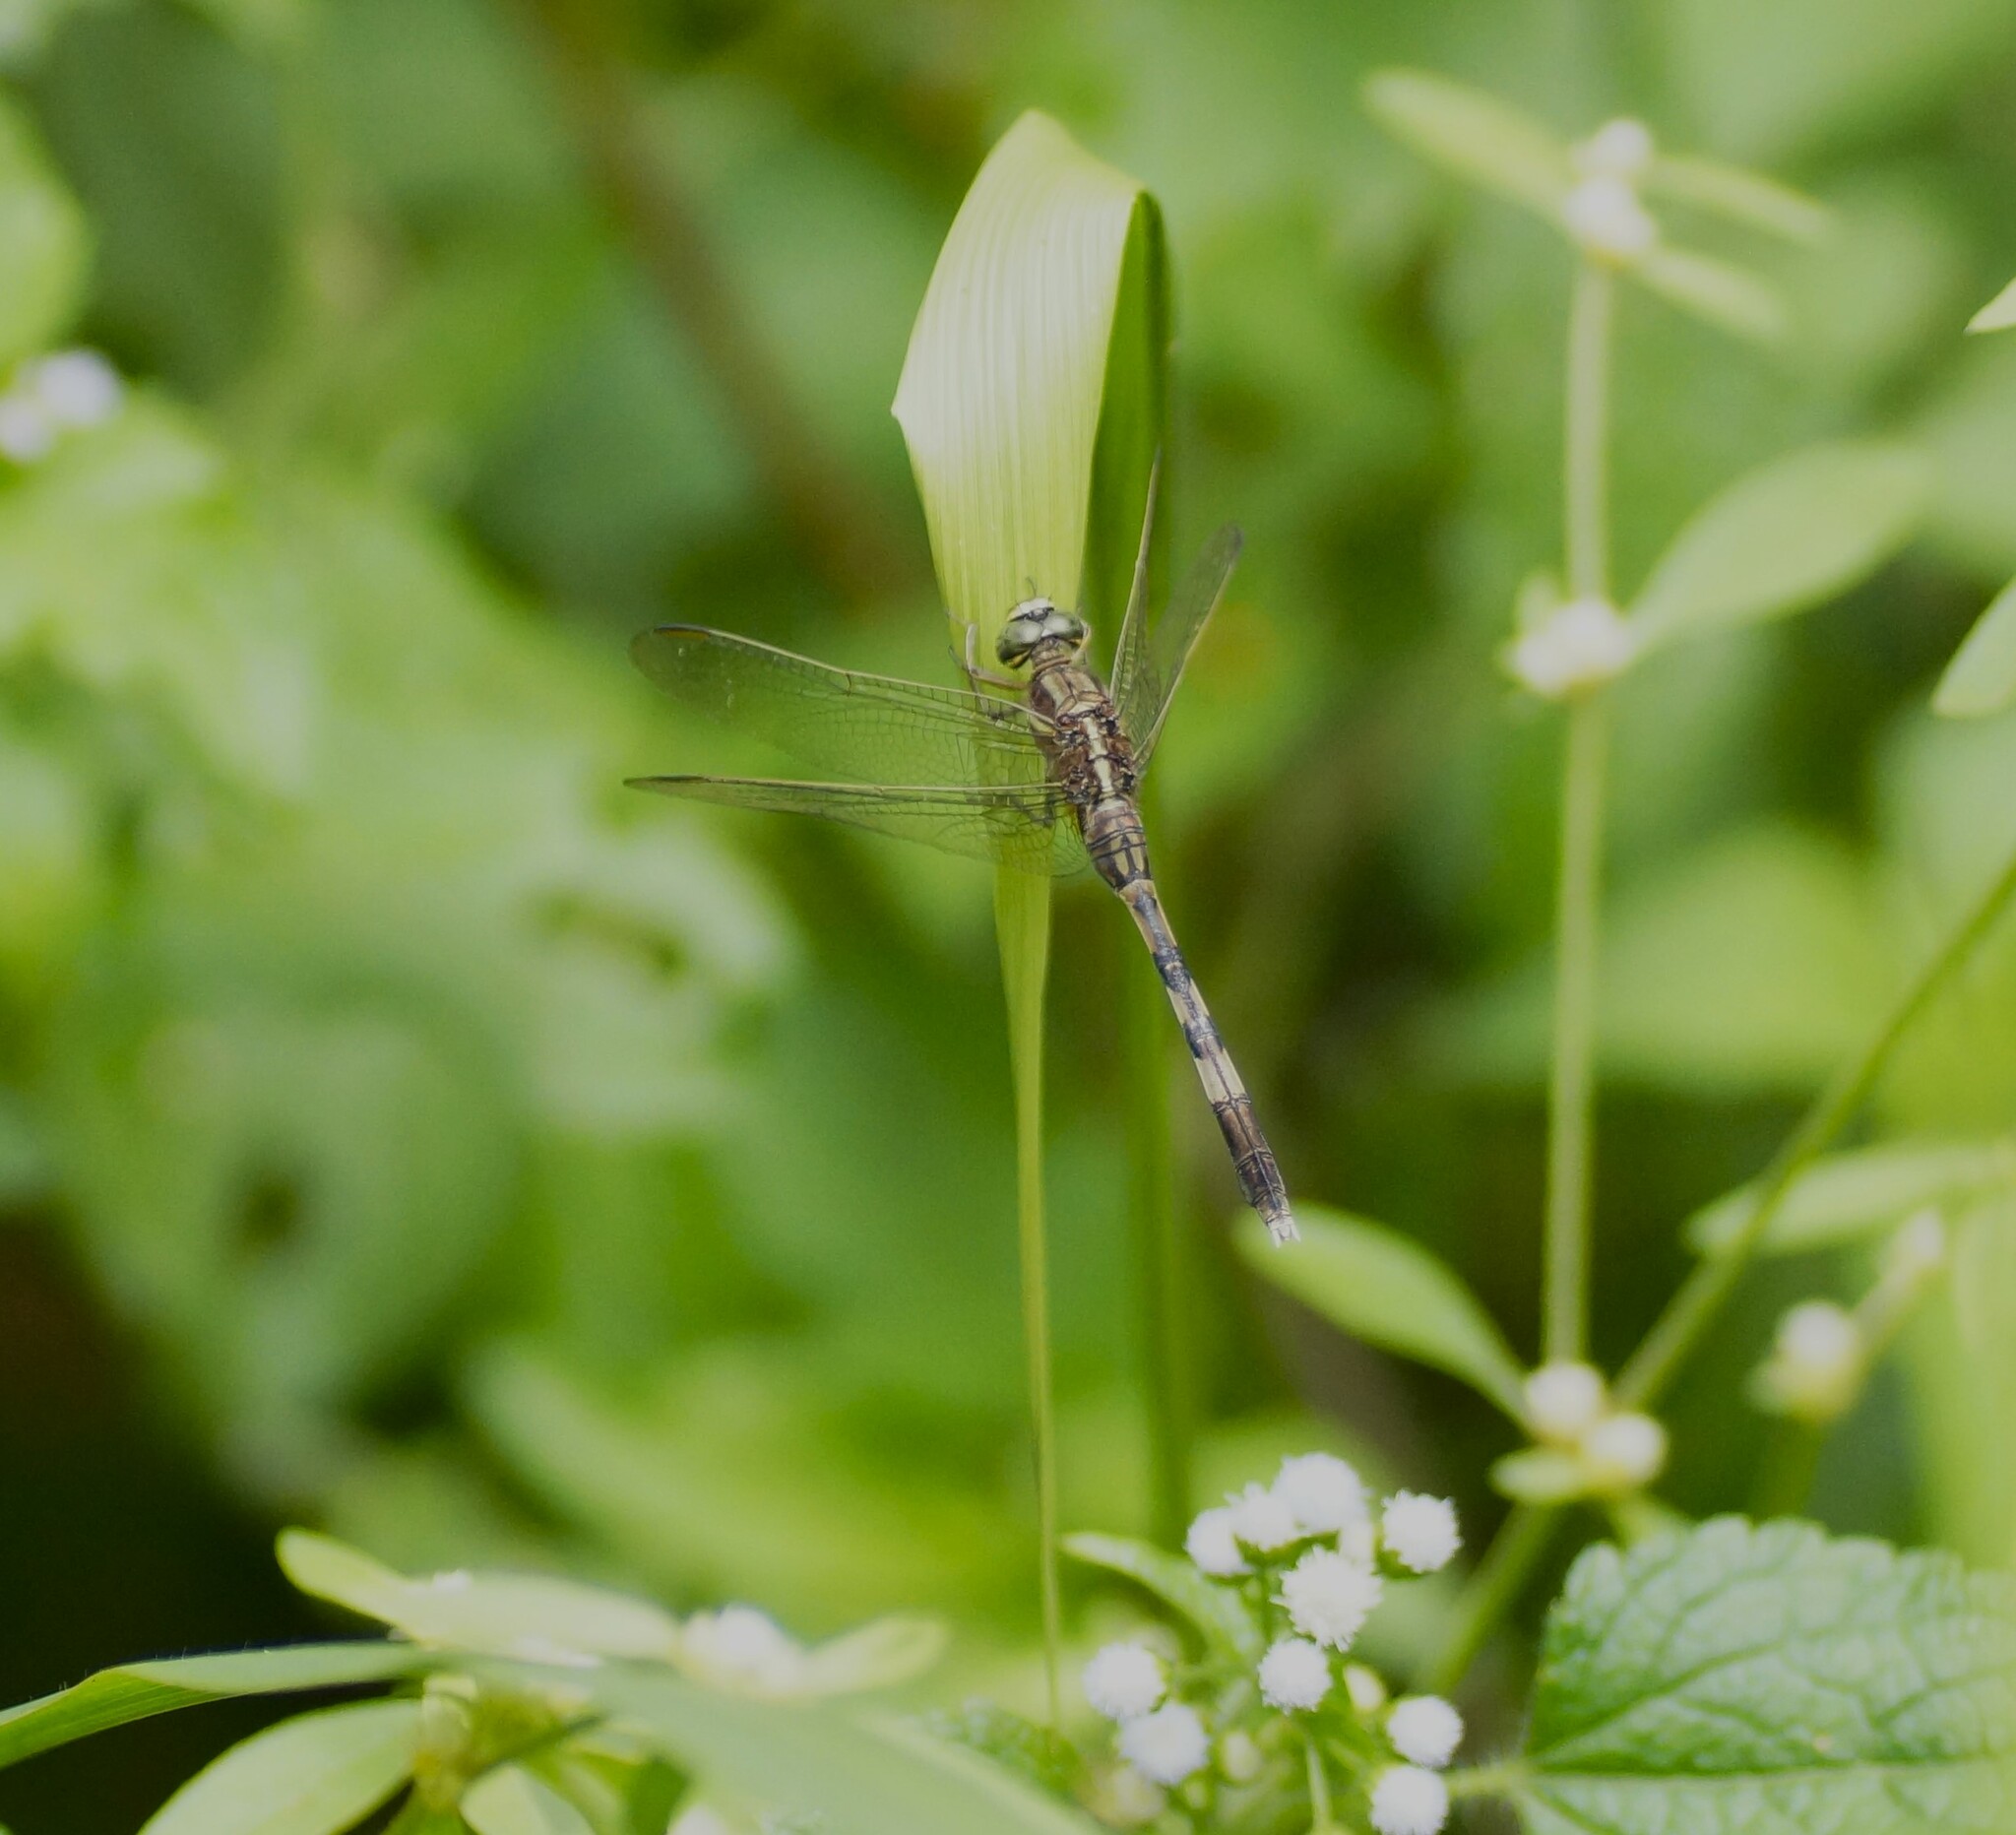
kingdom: Animalia
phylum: Arthropoda
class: Insecta
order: Odonata
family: Libellulidae
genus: Orthetrum
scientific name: Orthetrum sabina
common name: Slender skimmer
